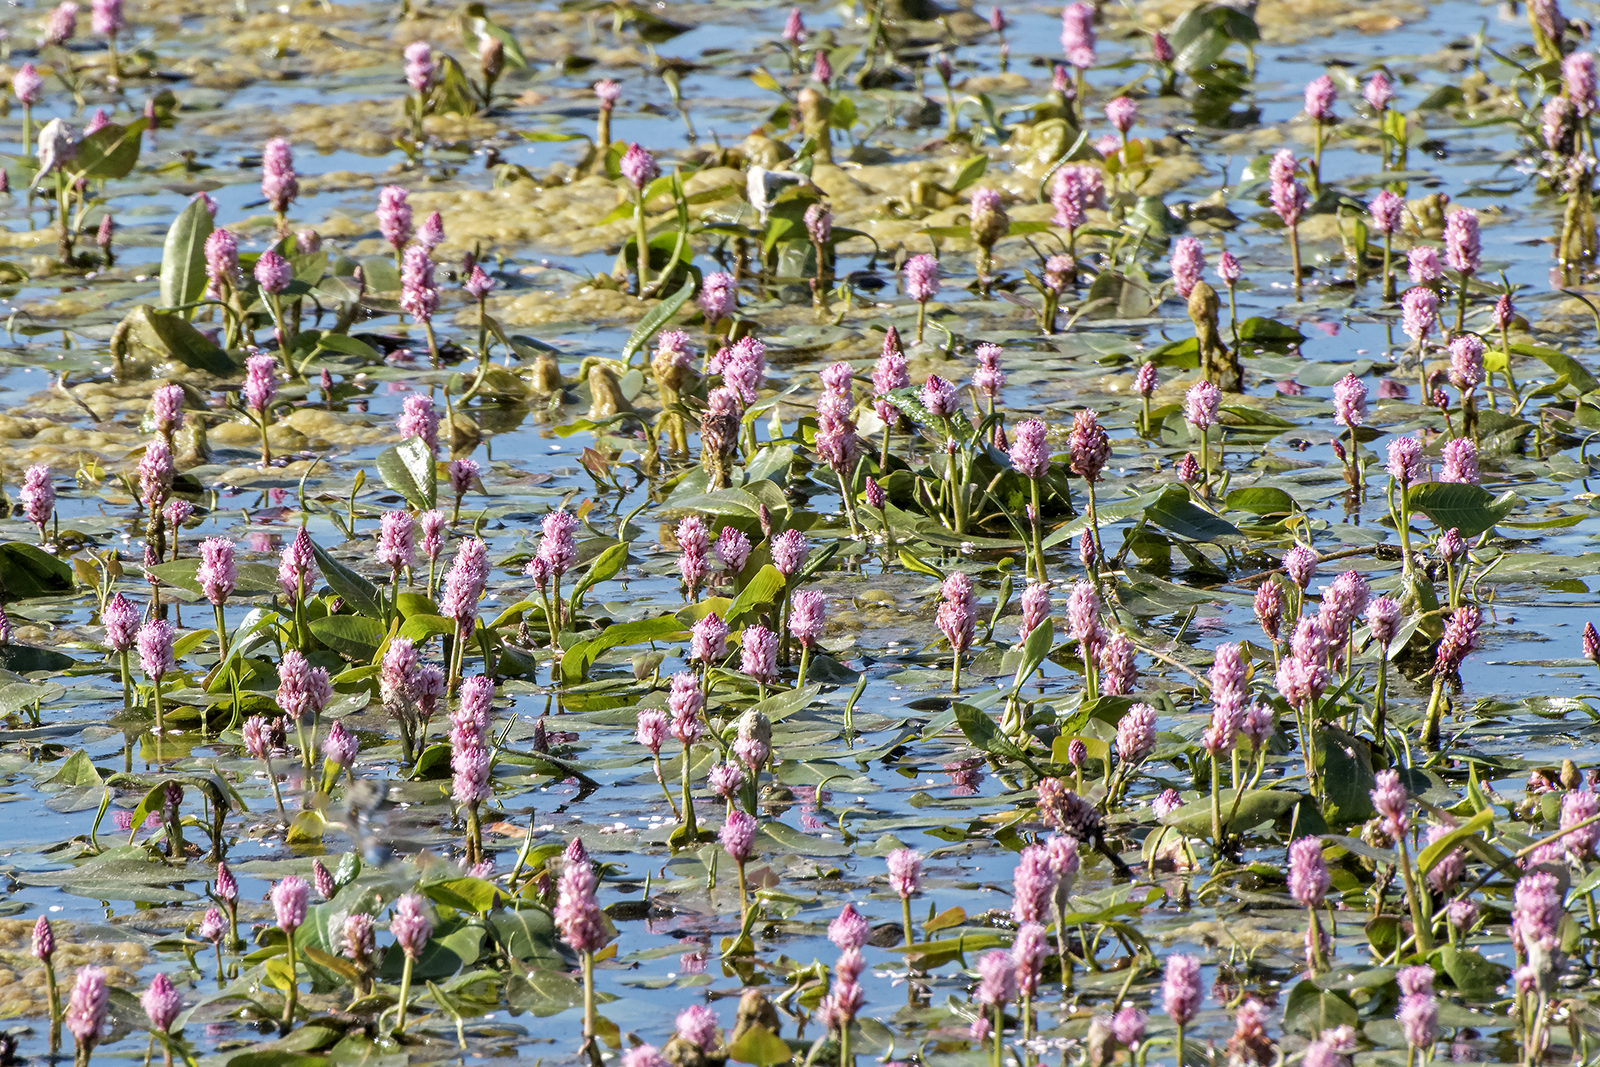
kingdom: Plantae
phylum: Tracheophyta
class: Magnoliopsida
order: Caryophyllales
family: Polygonaceae
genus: Persicaria
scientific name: Persicaria amphibia
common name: Amphibious bistort
